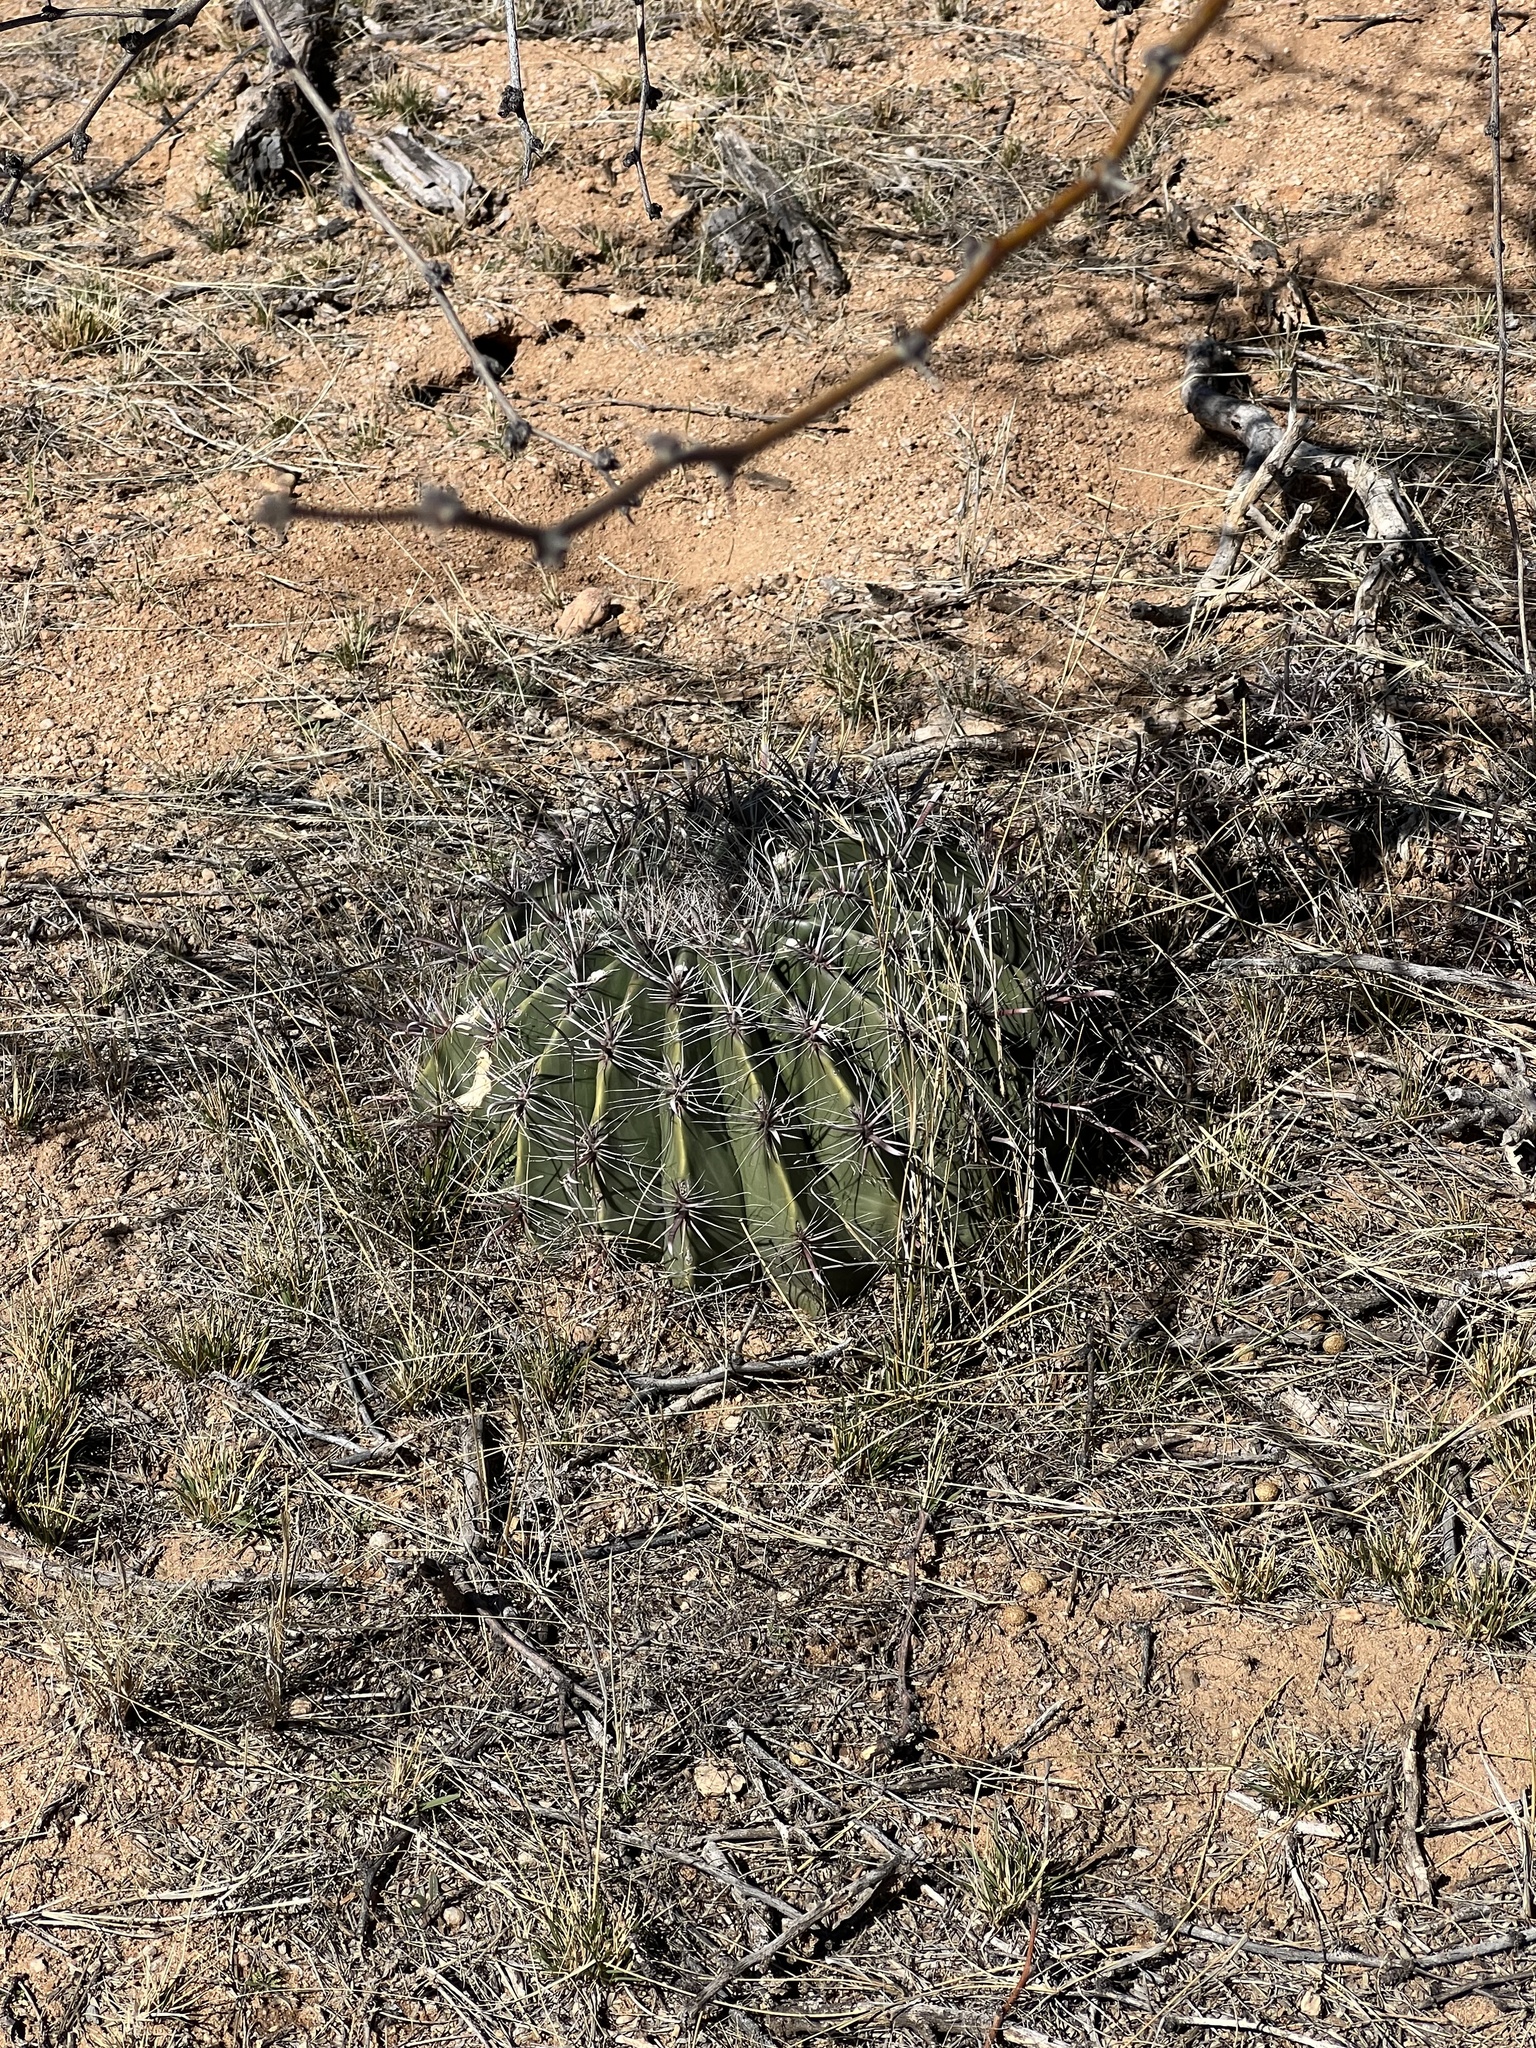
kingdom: Plantae
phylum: Tracheophyta
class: Magnoliopsida
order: Caryophyllales
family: Cactaceae
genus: Ferocactus
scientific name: Ferocactus wislizeni
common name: Candy barrel cactus
